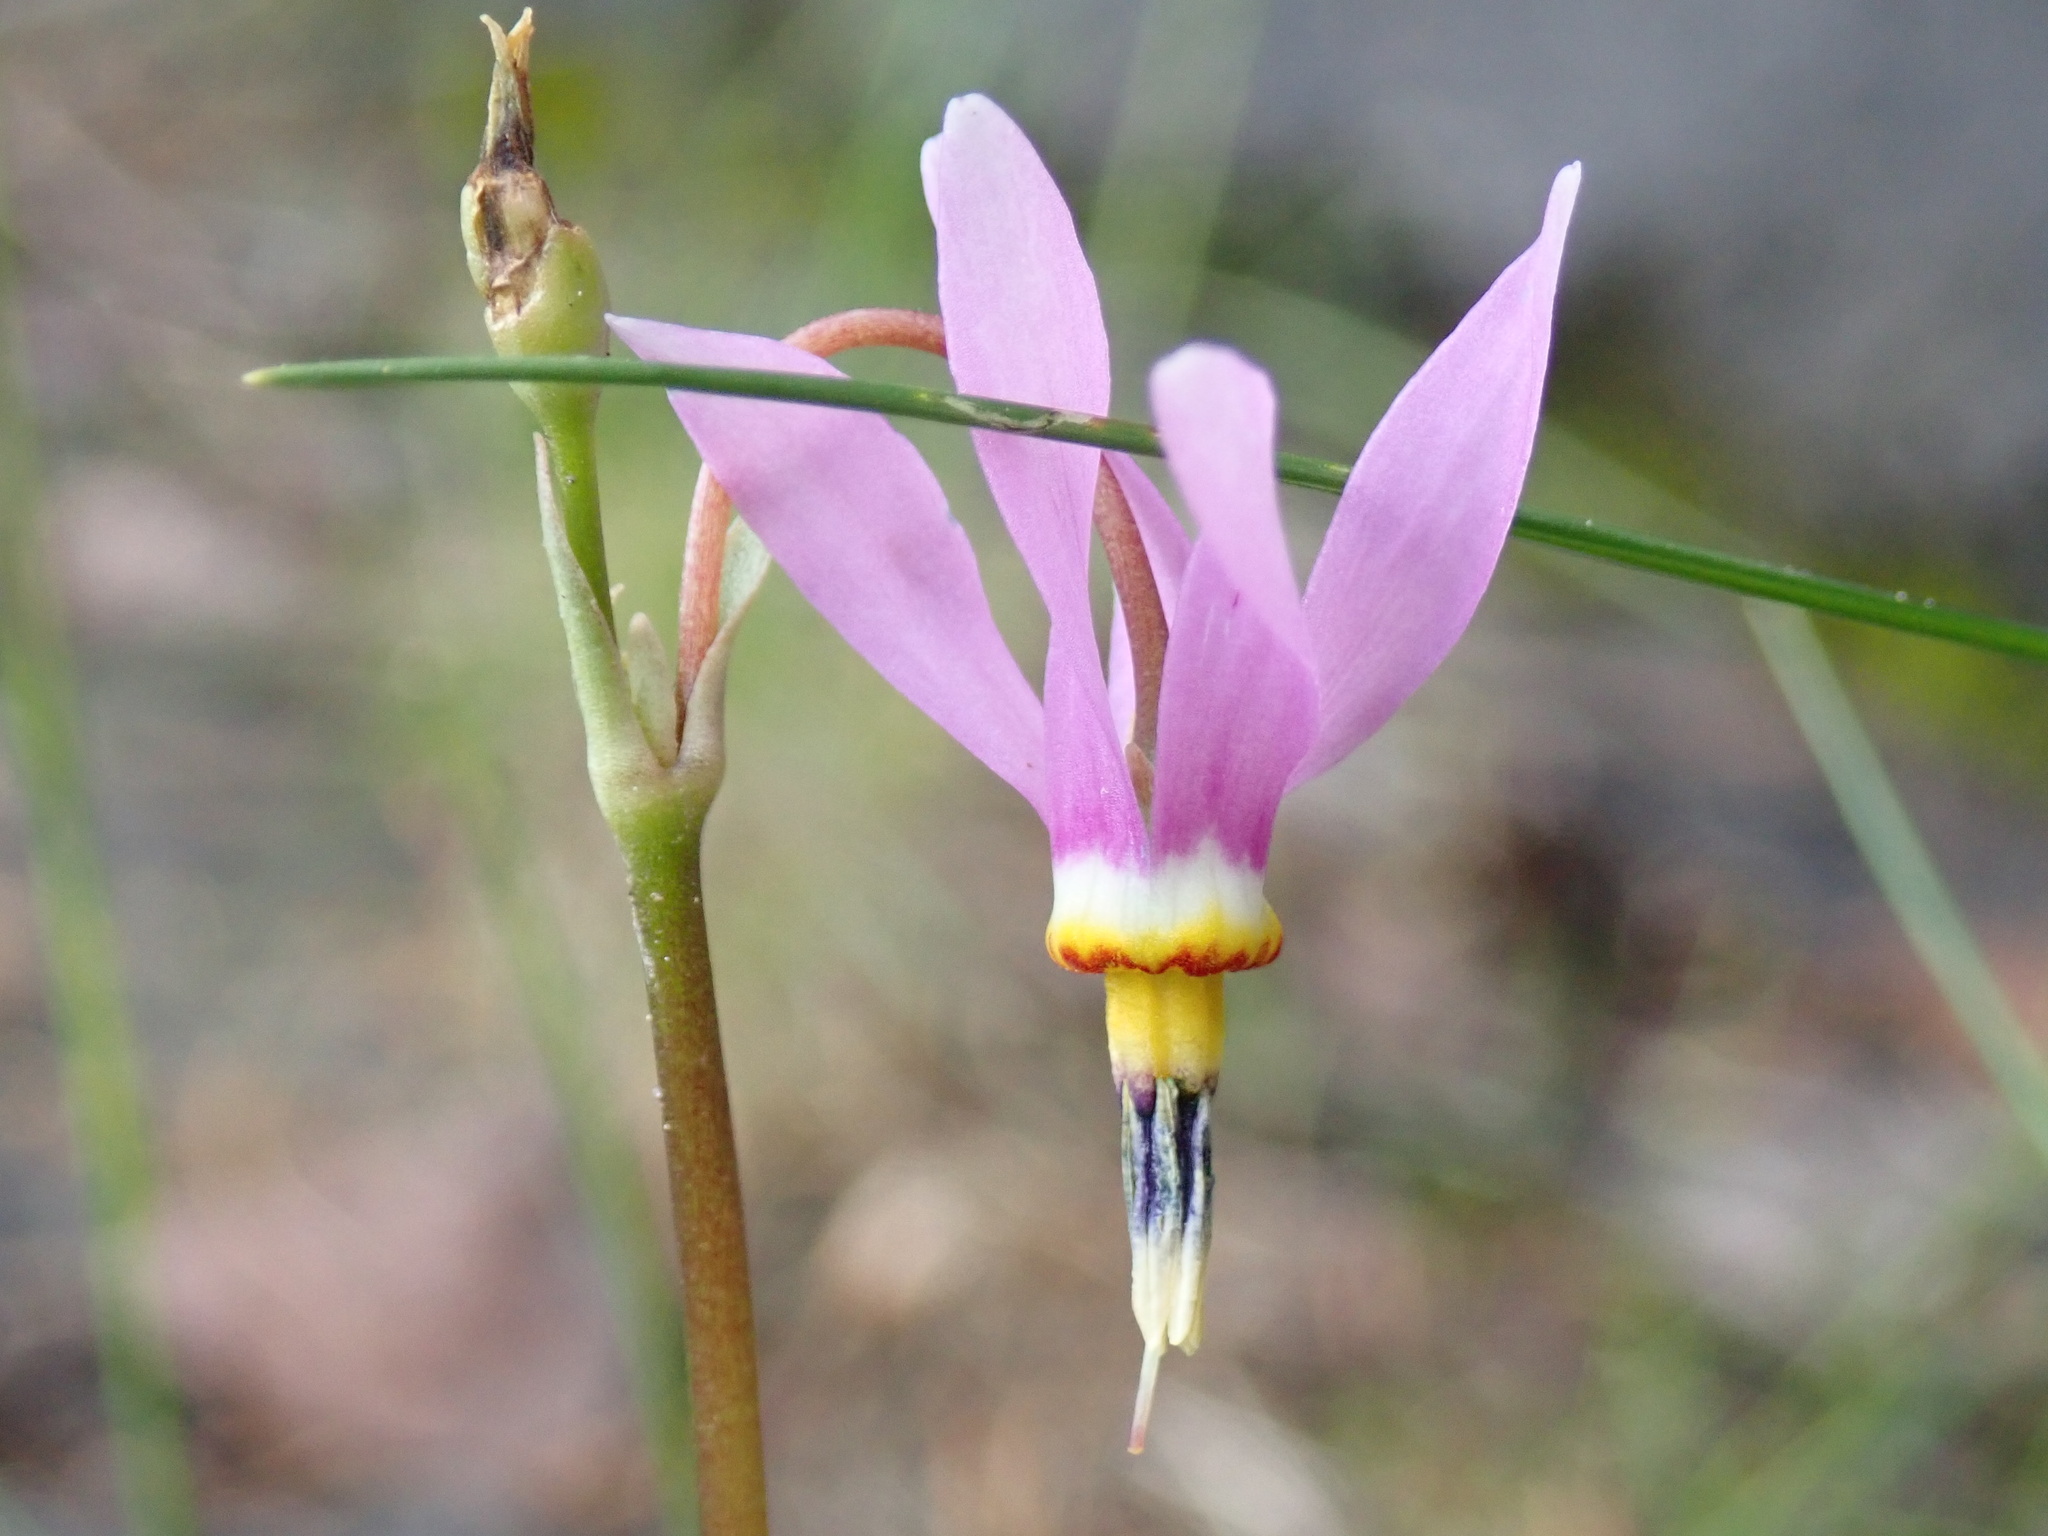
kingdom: Plantae
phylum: Tracheophyta
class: Magnoliopsida
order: Ericales
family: Primulaceae
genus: Dodecatheon
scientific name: Dodecatheon pulchellum
